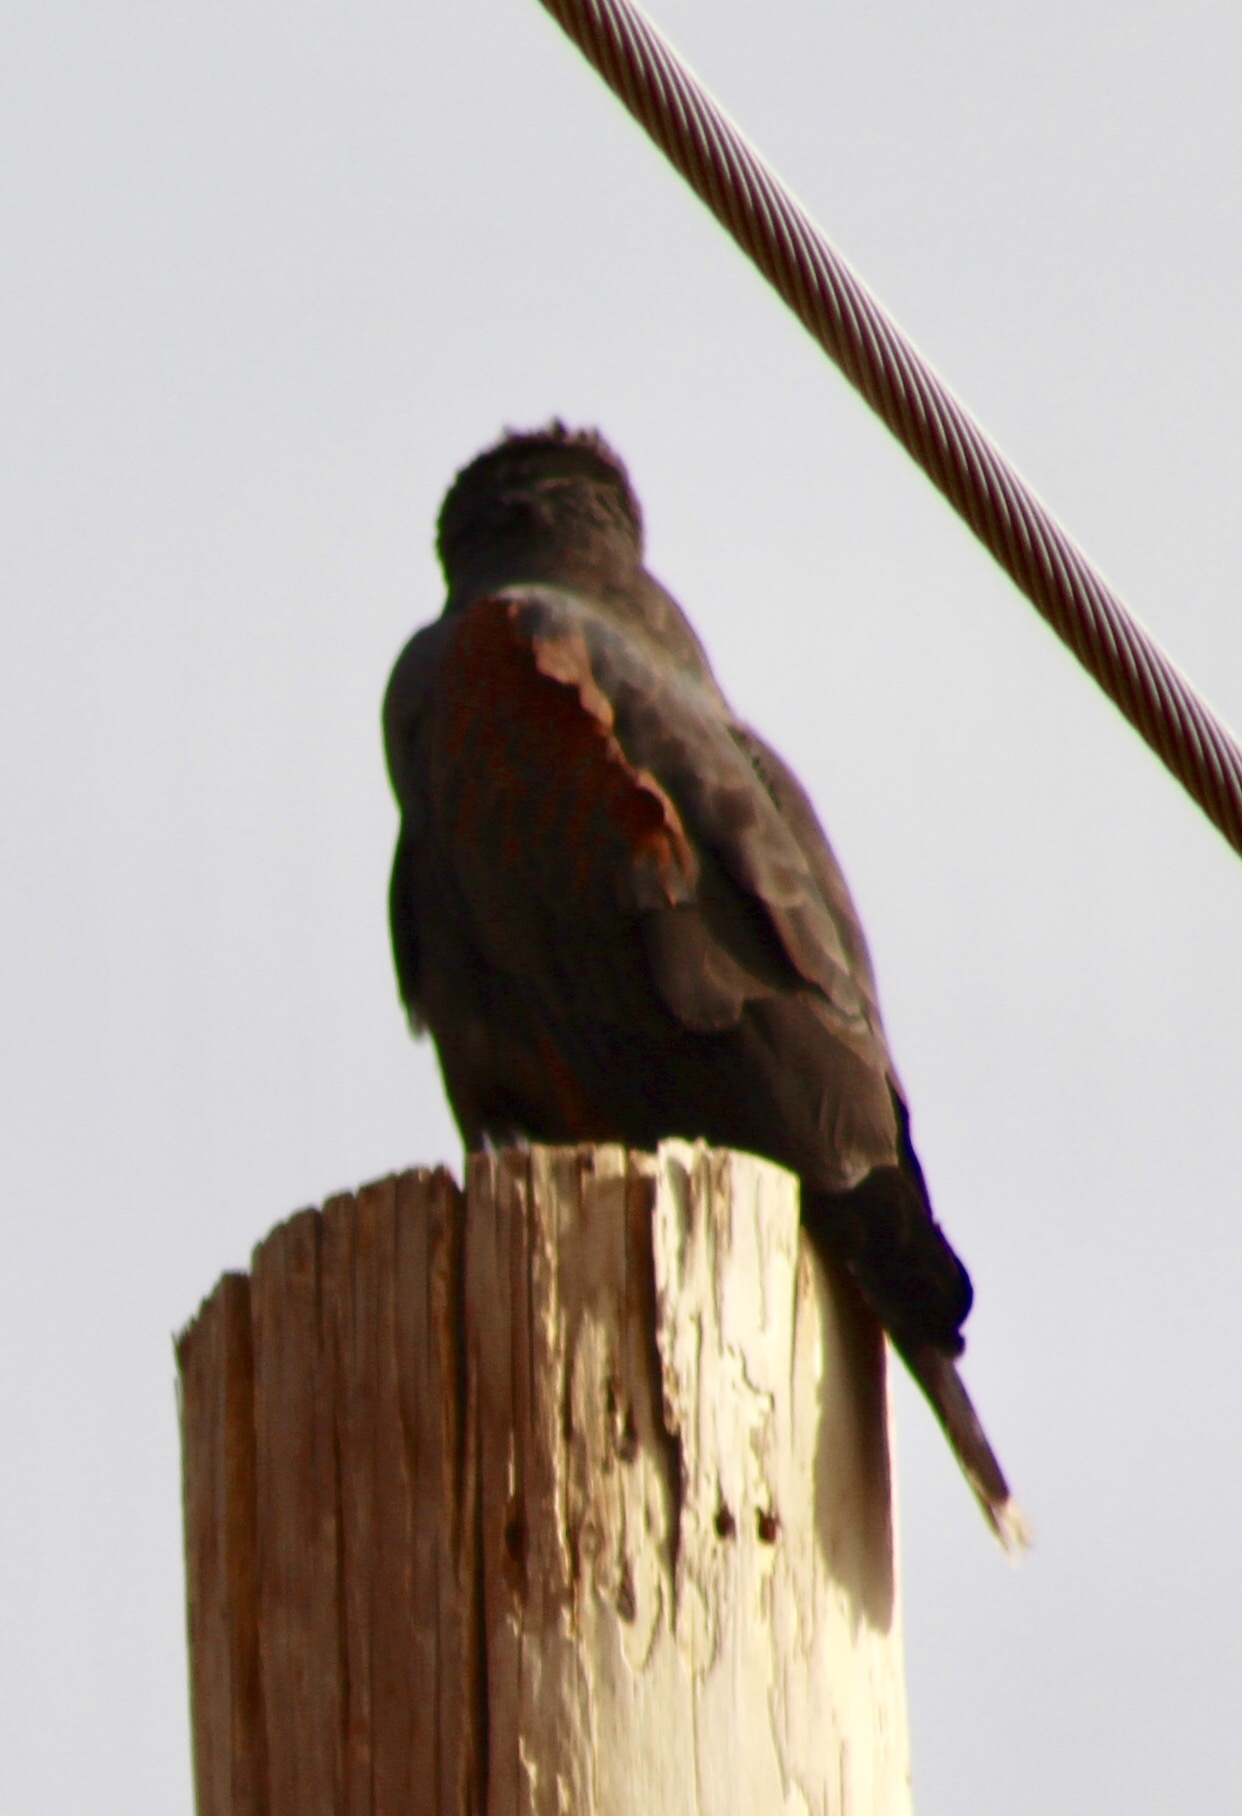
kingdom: Animalia
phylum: Chordata
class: Aves
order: Accipitriformes
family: Accipitridae
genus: Parabuteo
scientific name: Parabuteo unicinctus
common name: Harris's hawk
